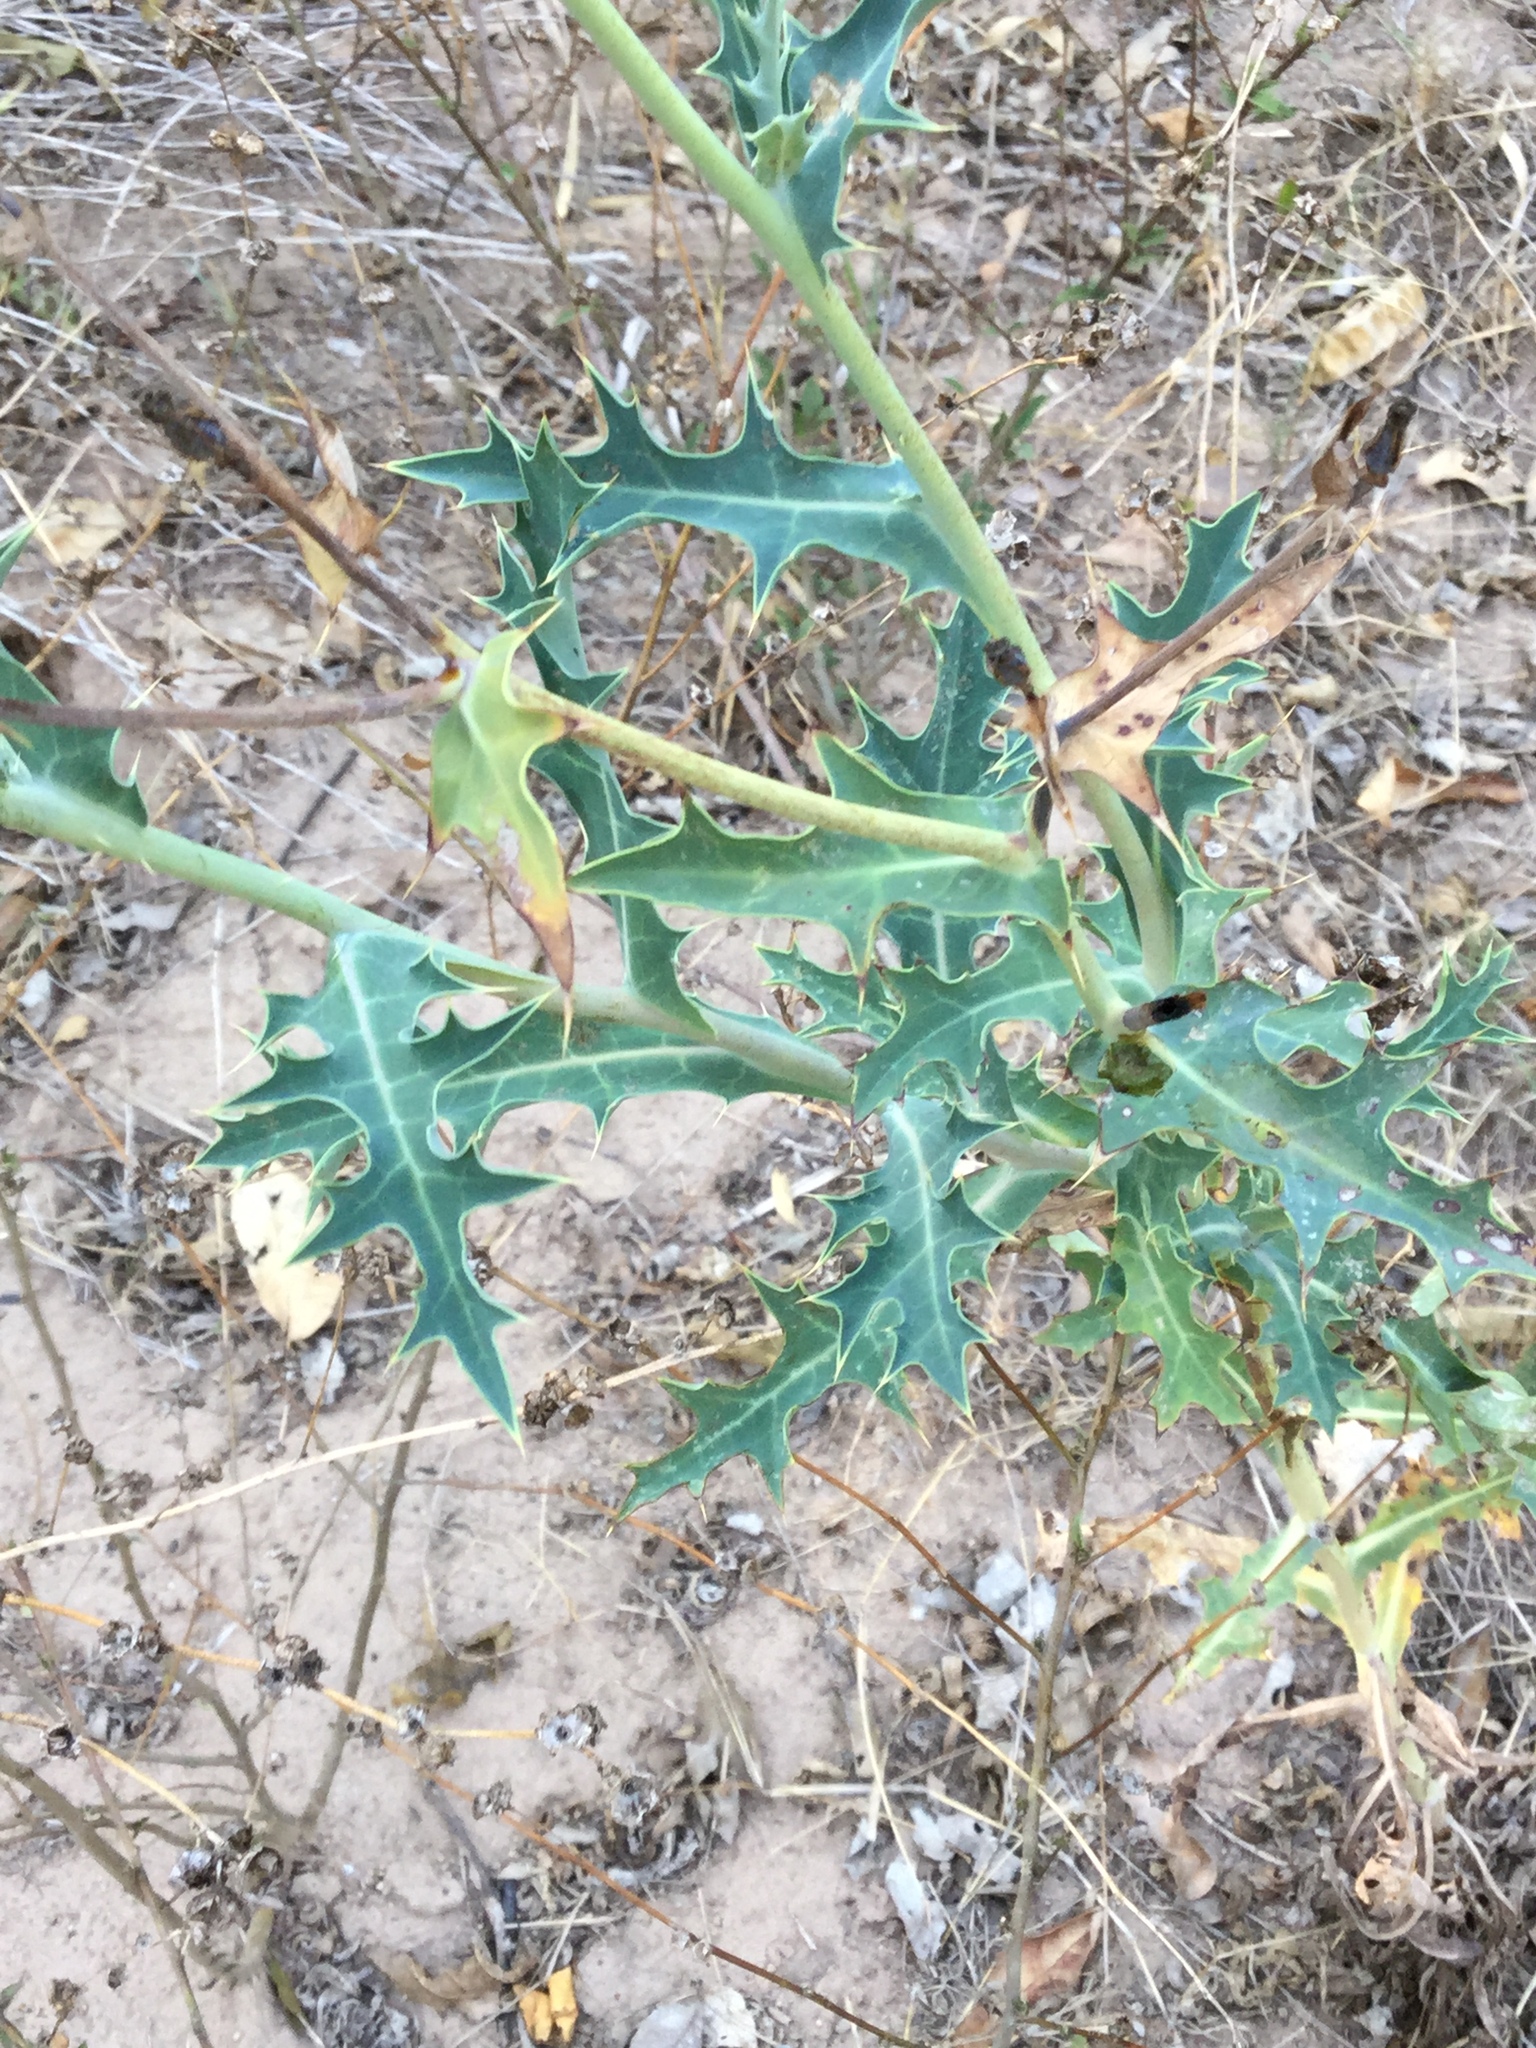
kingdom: Plantae
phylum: Tracheophyta
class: Magnoliopsida
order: Ranunculales
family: Papaveraceae
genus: Argemone
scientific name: Argemone grandiflora
